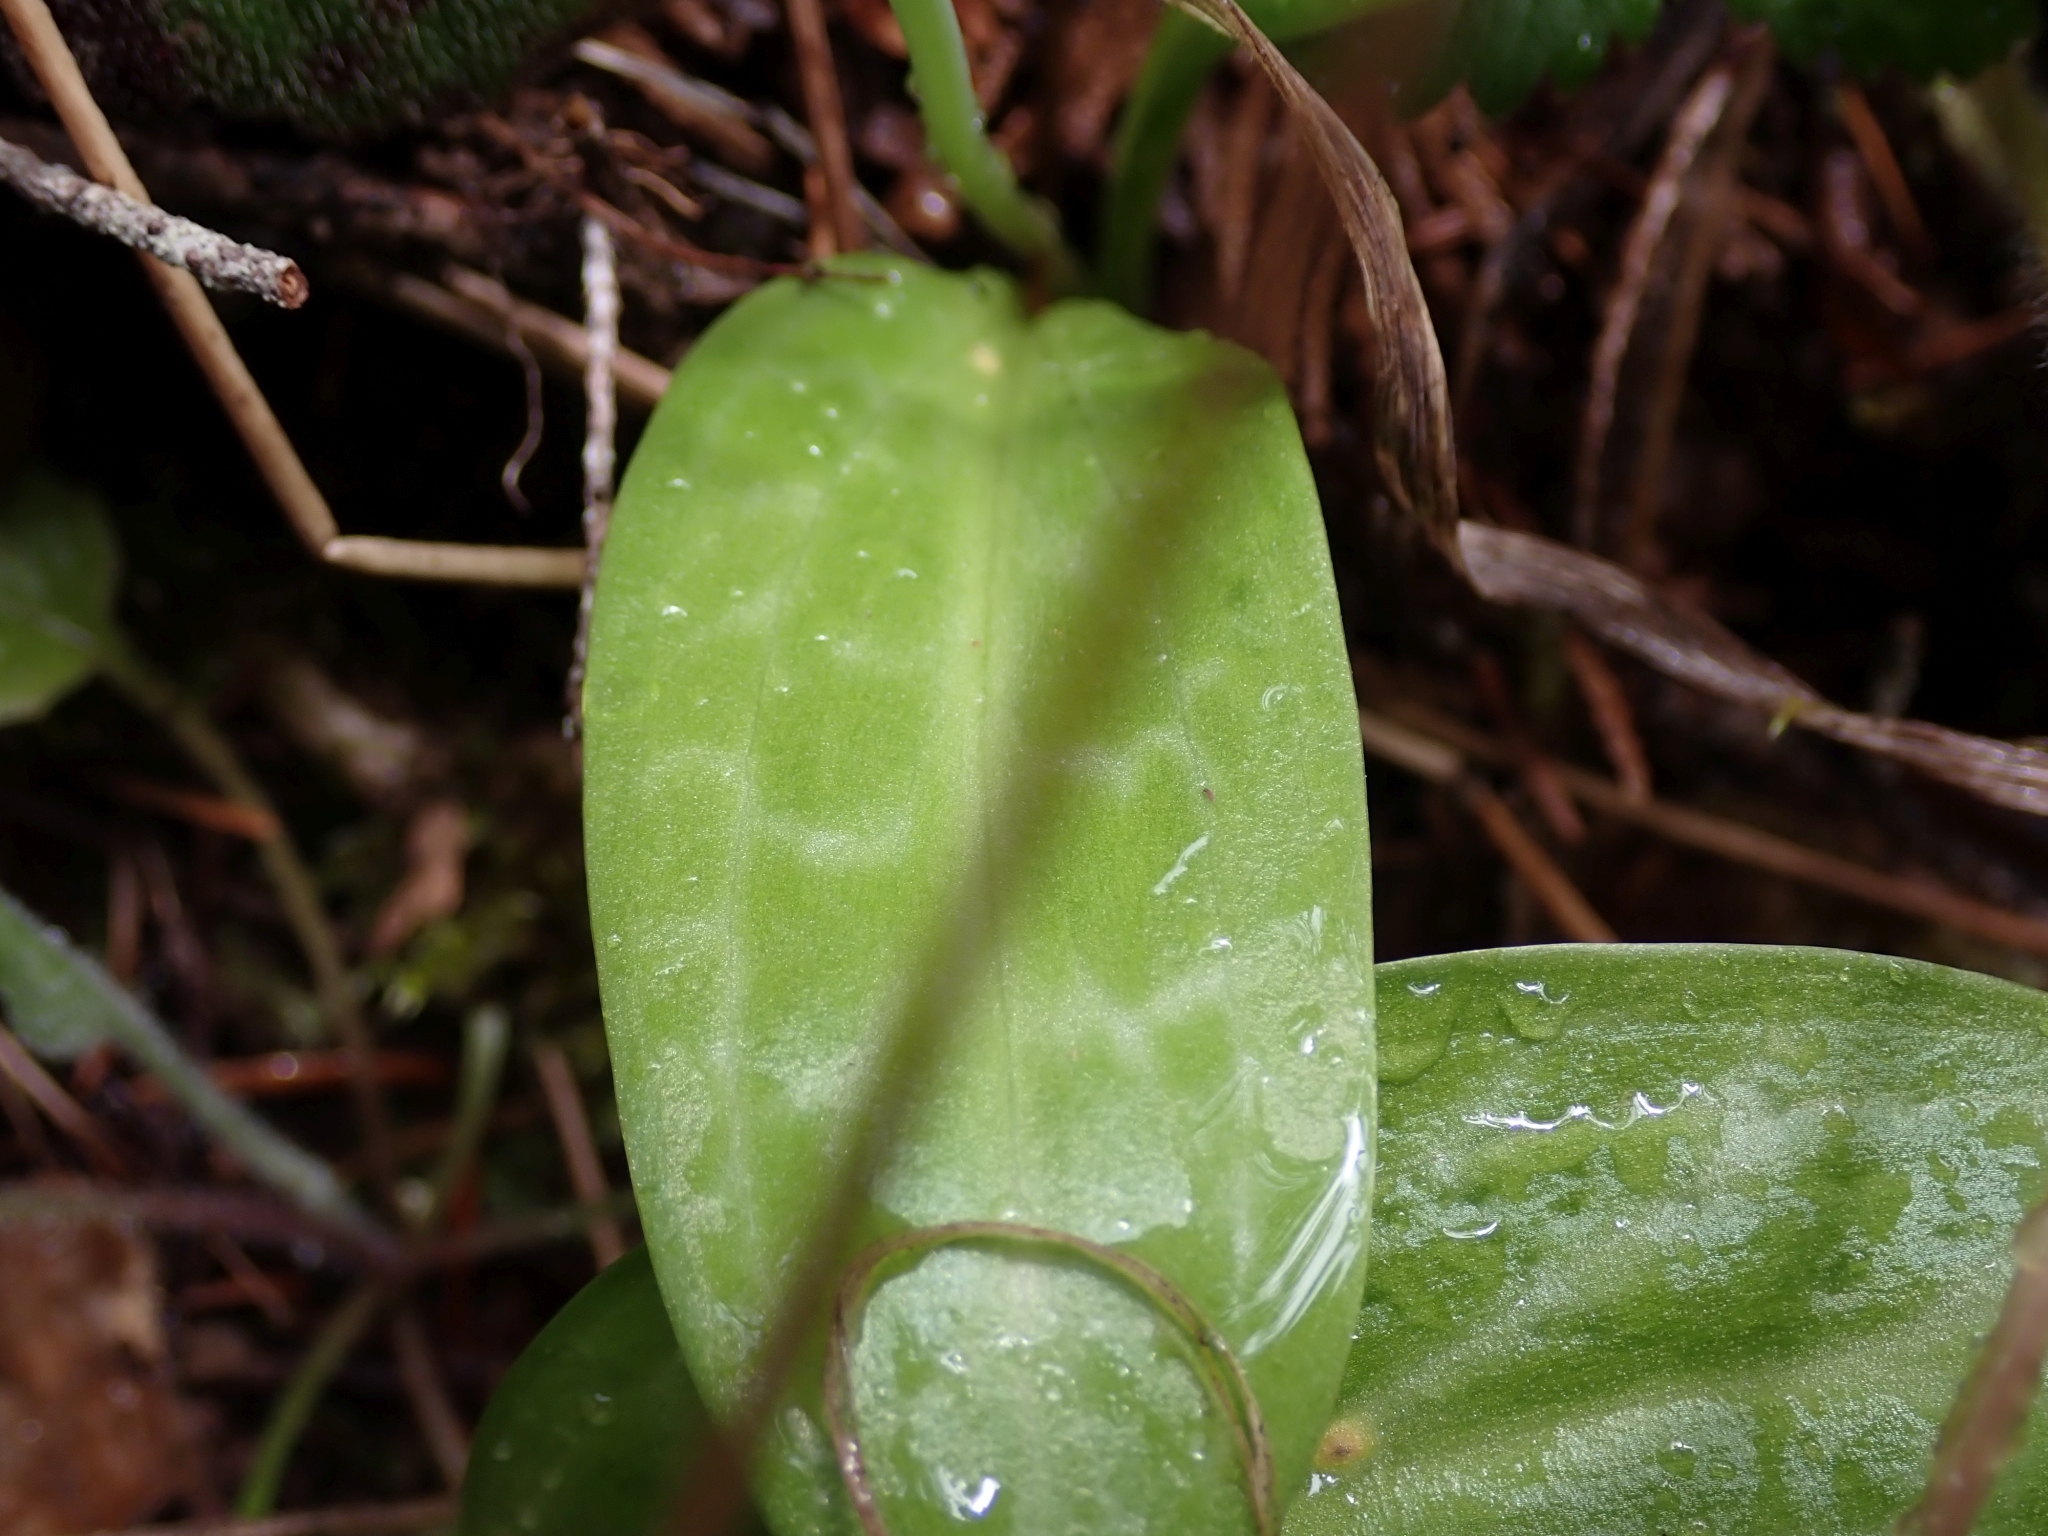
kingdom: Plantae
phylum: Tracheophyta
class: Liliopsida
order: Liliales
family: Liliaceae
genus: Erythronium
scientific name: Erythronium oregonum
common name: Giant adder's-tongue
